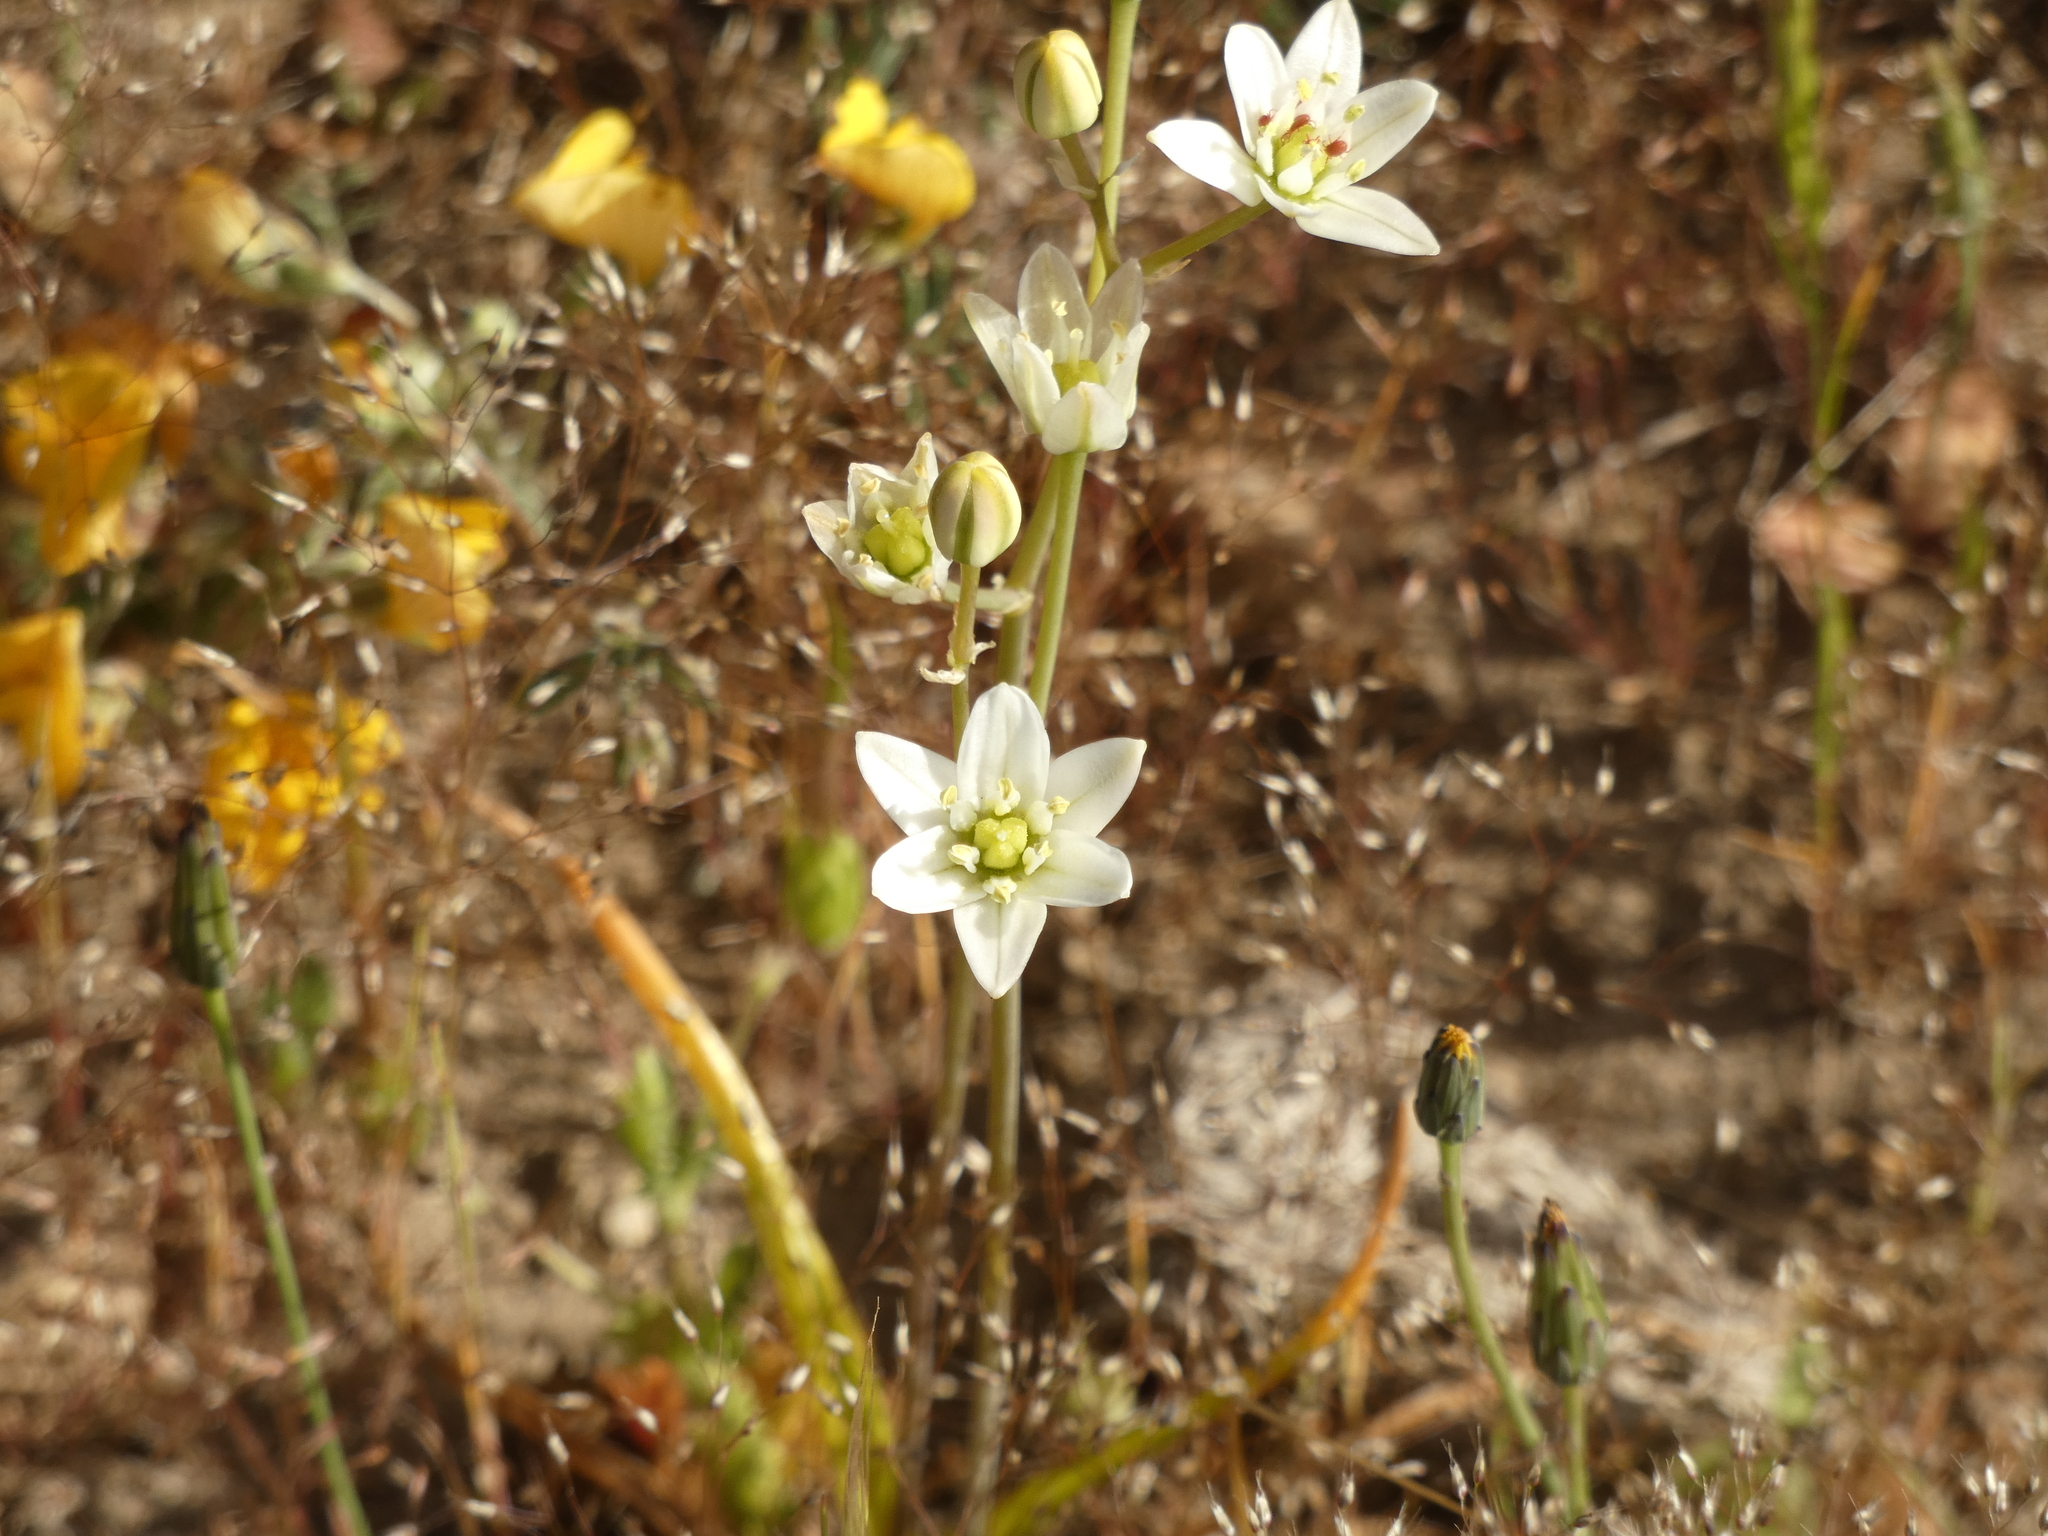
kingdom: Plantae
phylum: Tracheophyta
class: Liliopsida
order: Asparagales
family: Asparagaceae
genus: Oziroe
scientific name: Oziroe arida
